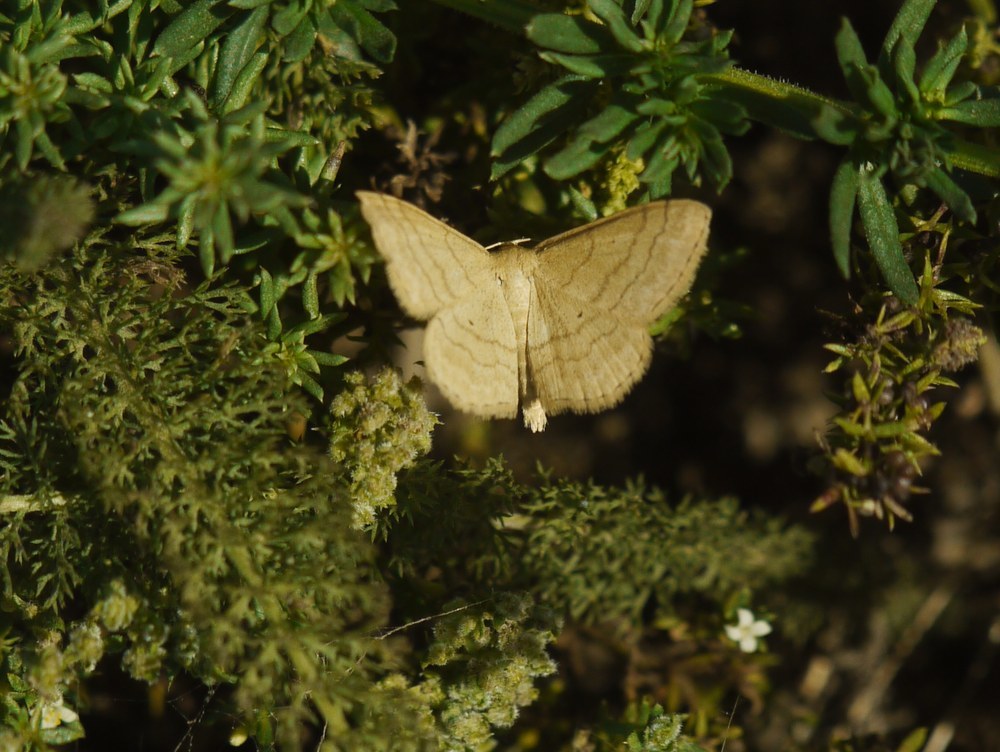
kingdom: Animalia
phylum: Arthropoda
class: Insecta
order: Lepidoptera
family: Geometridae
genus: Scopula
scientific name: Scopula rubiginata
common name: Tawny wave
